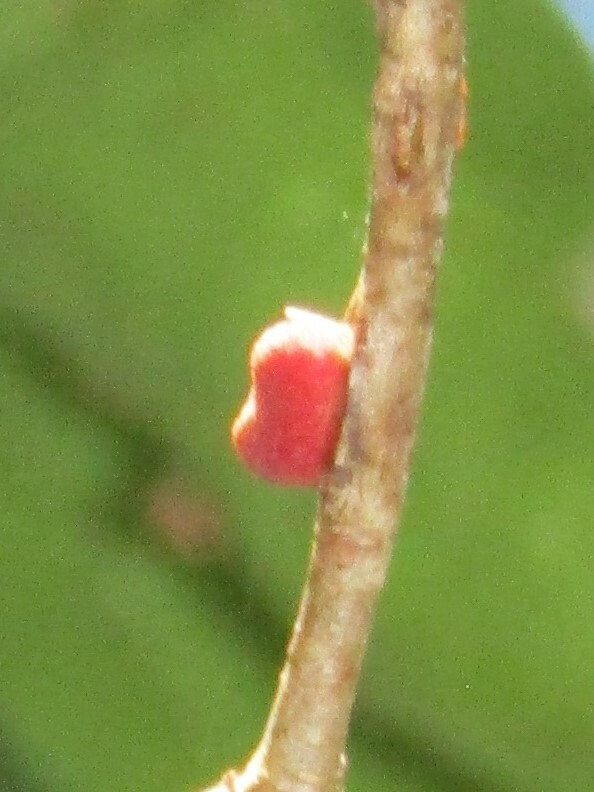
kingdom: Animalia
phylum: Arthropoda
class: Insecta
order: Hymenoptera
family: Cynipidae
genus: Kokkocynips
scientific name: Kokkocynips imbricariae
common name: Banded bullet gall wasp
